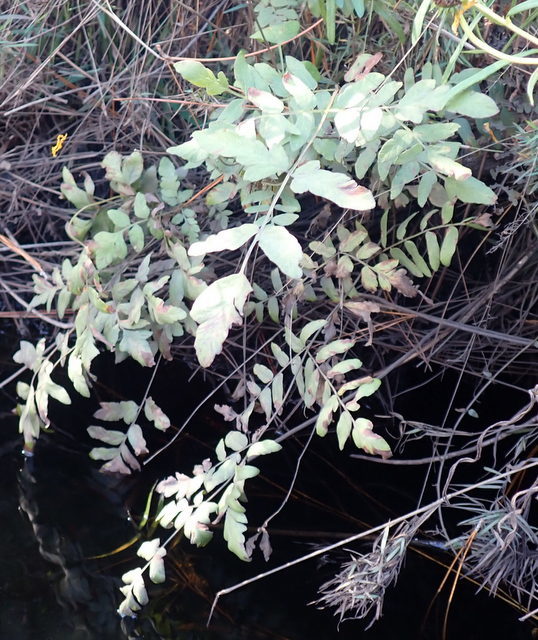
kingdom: Plantae
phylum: Tracheophyta
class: Polypodiopsida
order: Osmundales
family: Osmundaceae
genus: Osmunda
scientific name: Osmunda spectabilis
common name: American royal fern
